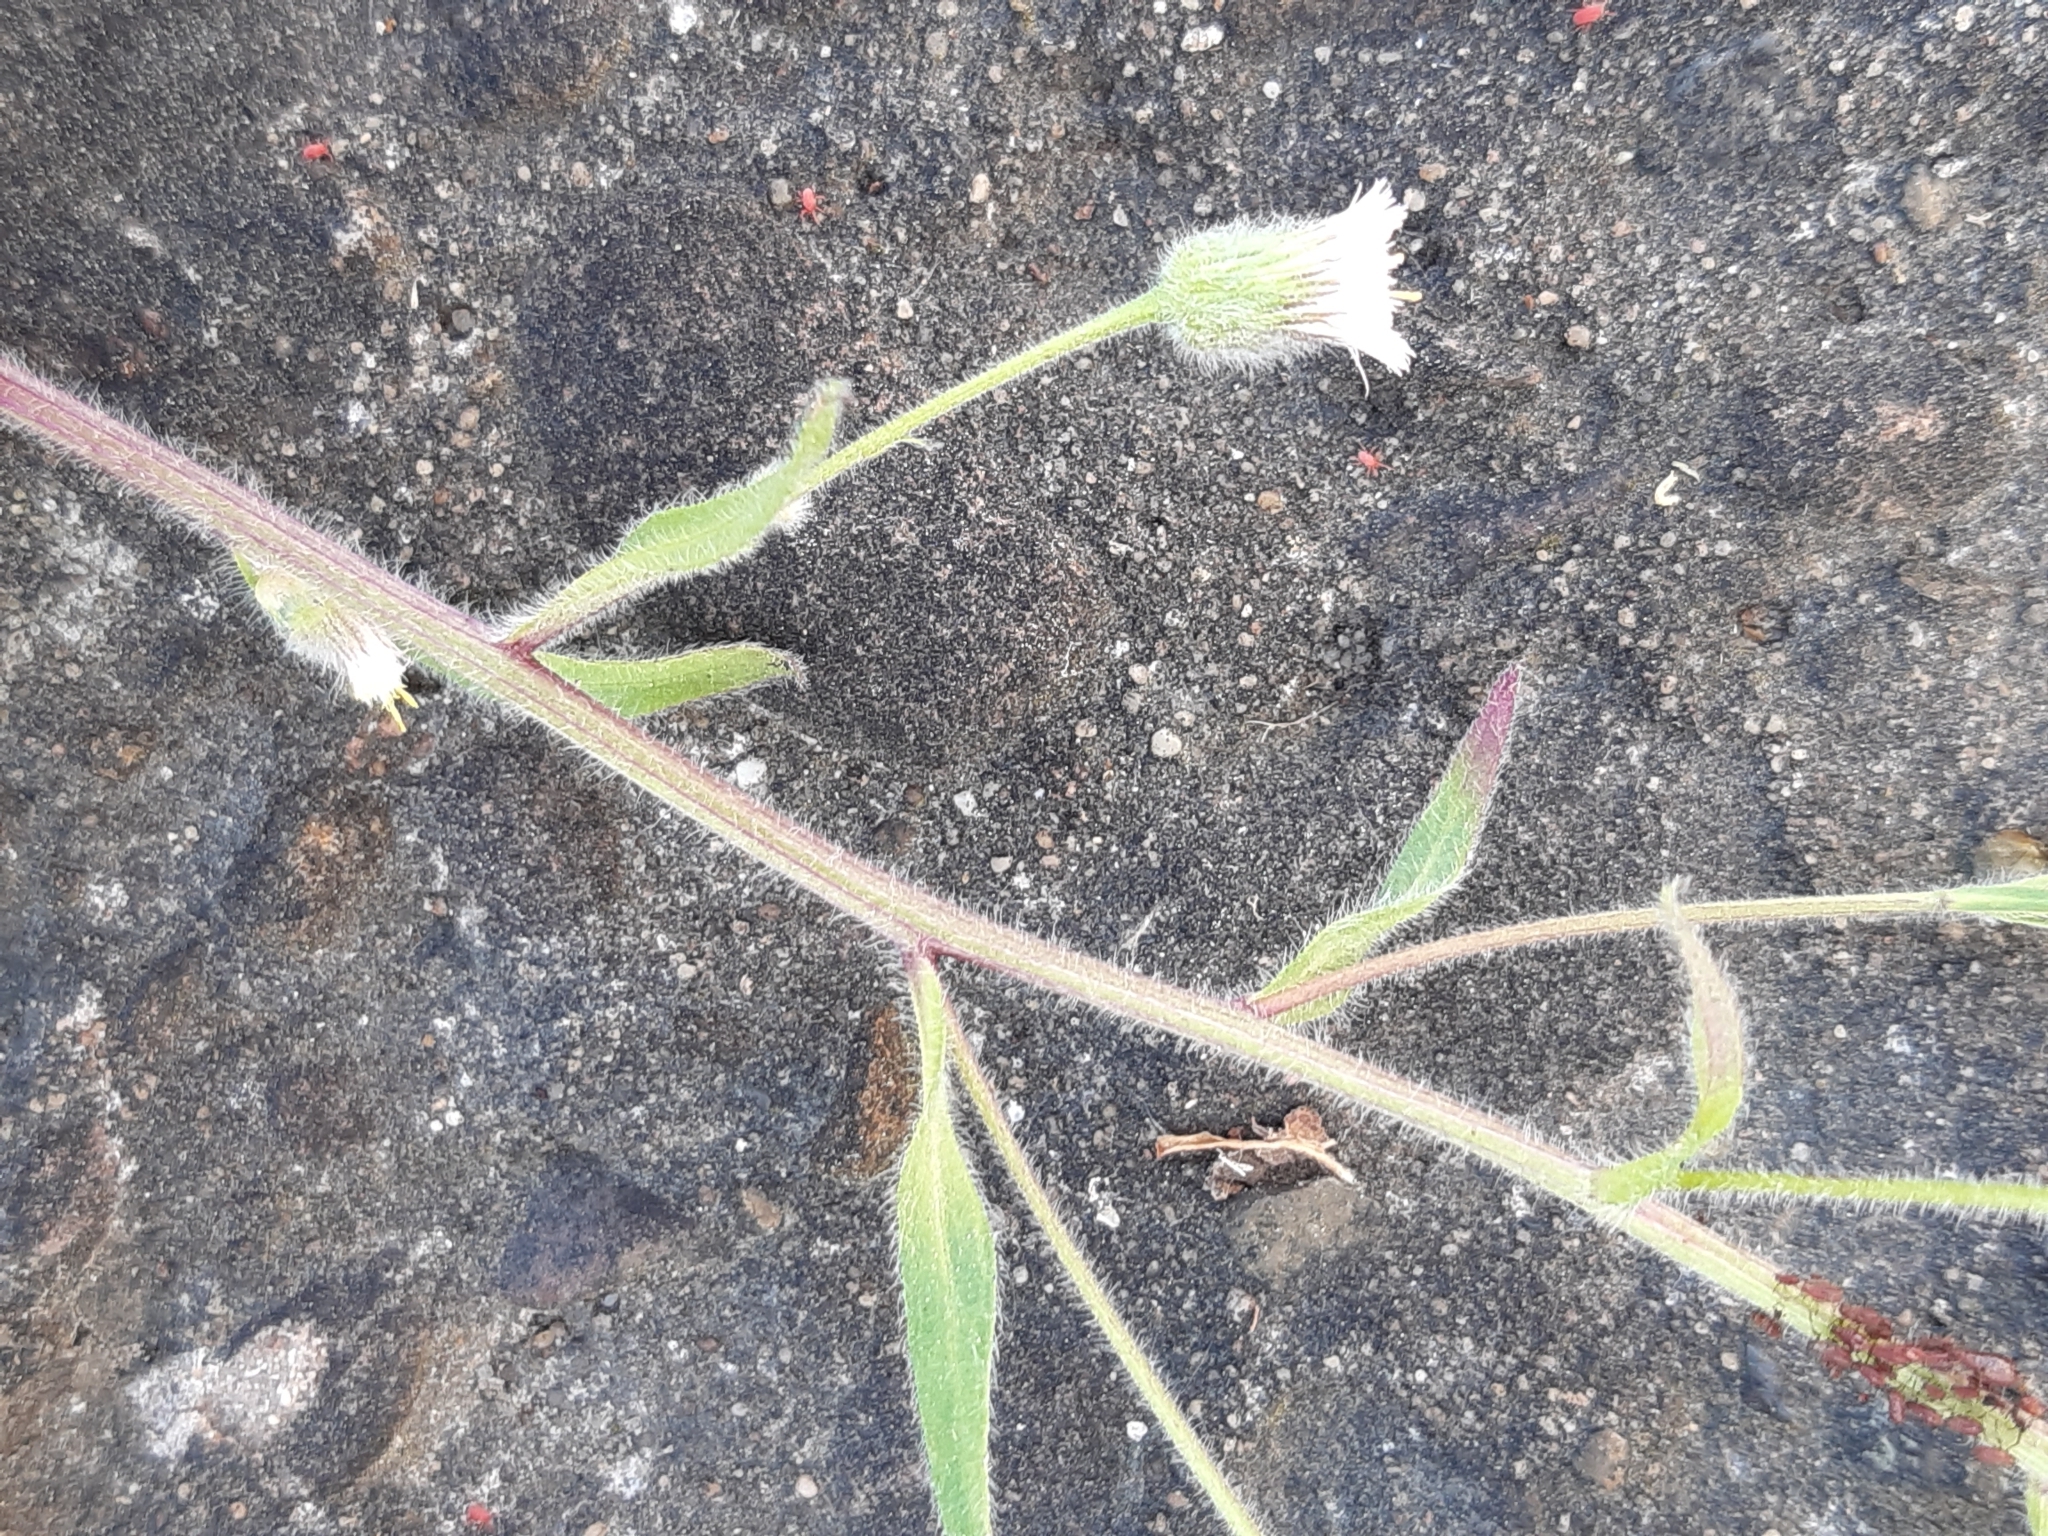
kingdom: Plantae
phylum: Tracheophyta
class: Magnoliopsida
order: Asterales
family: Asteraceae
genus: Erigeron
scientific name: Erigeron acris
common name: Blue fleabane
